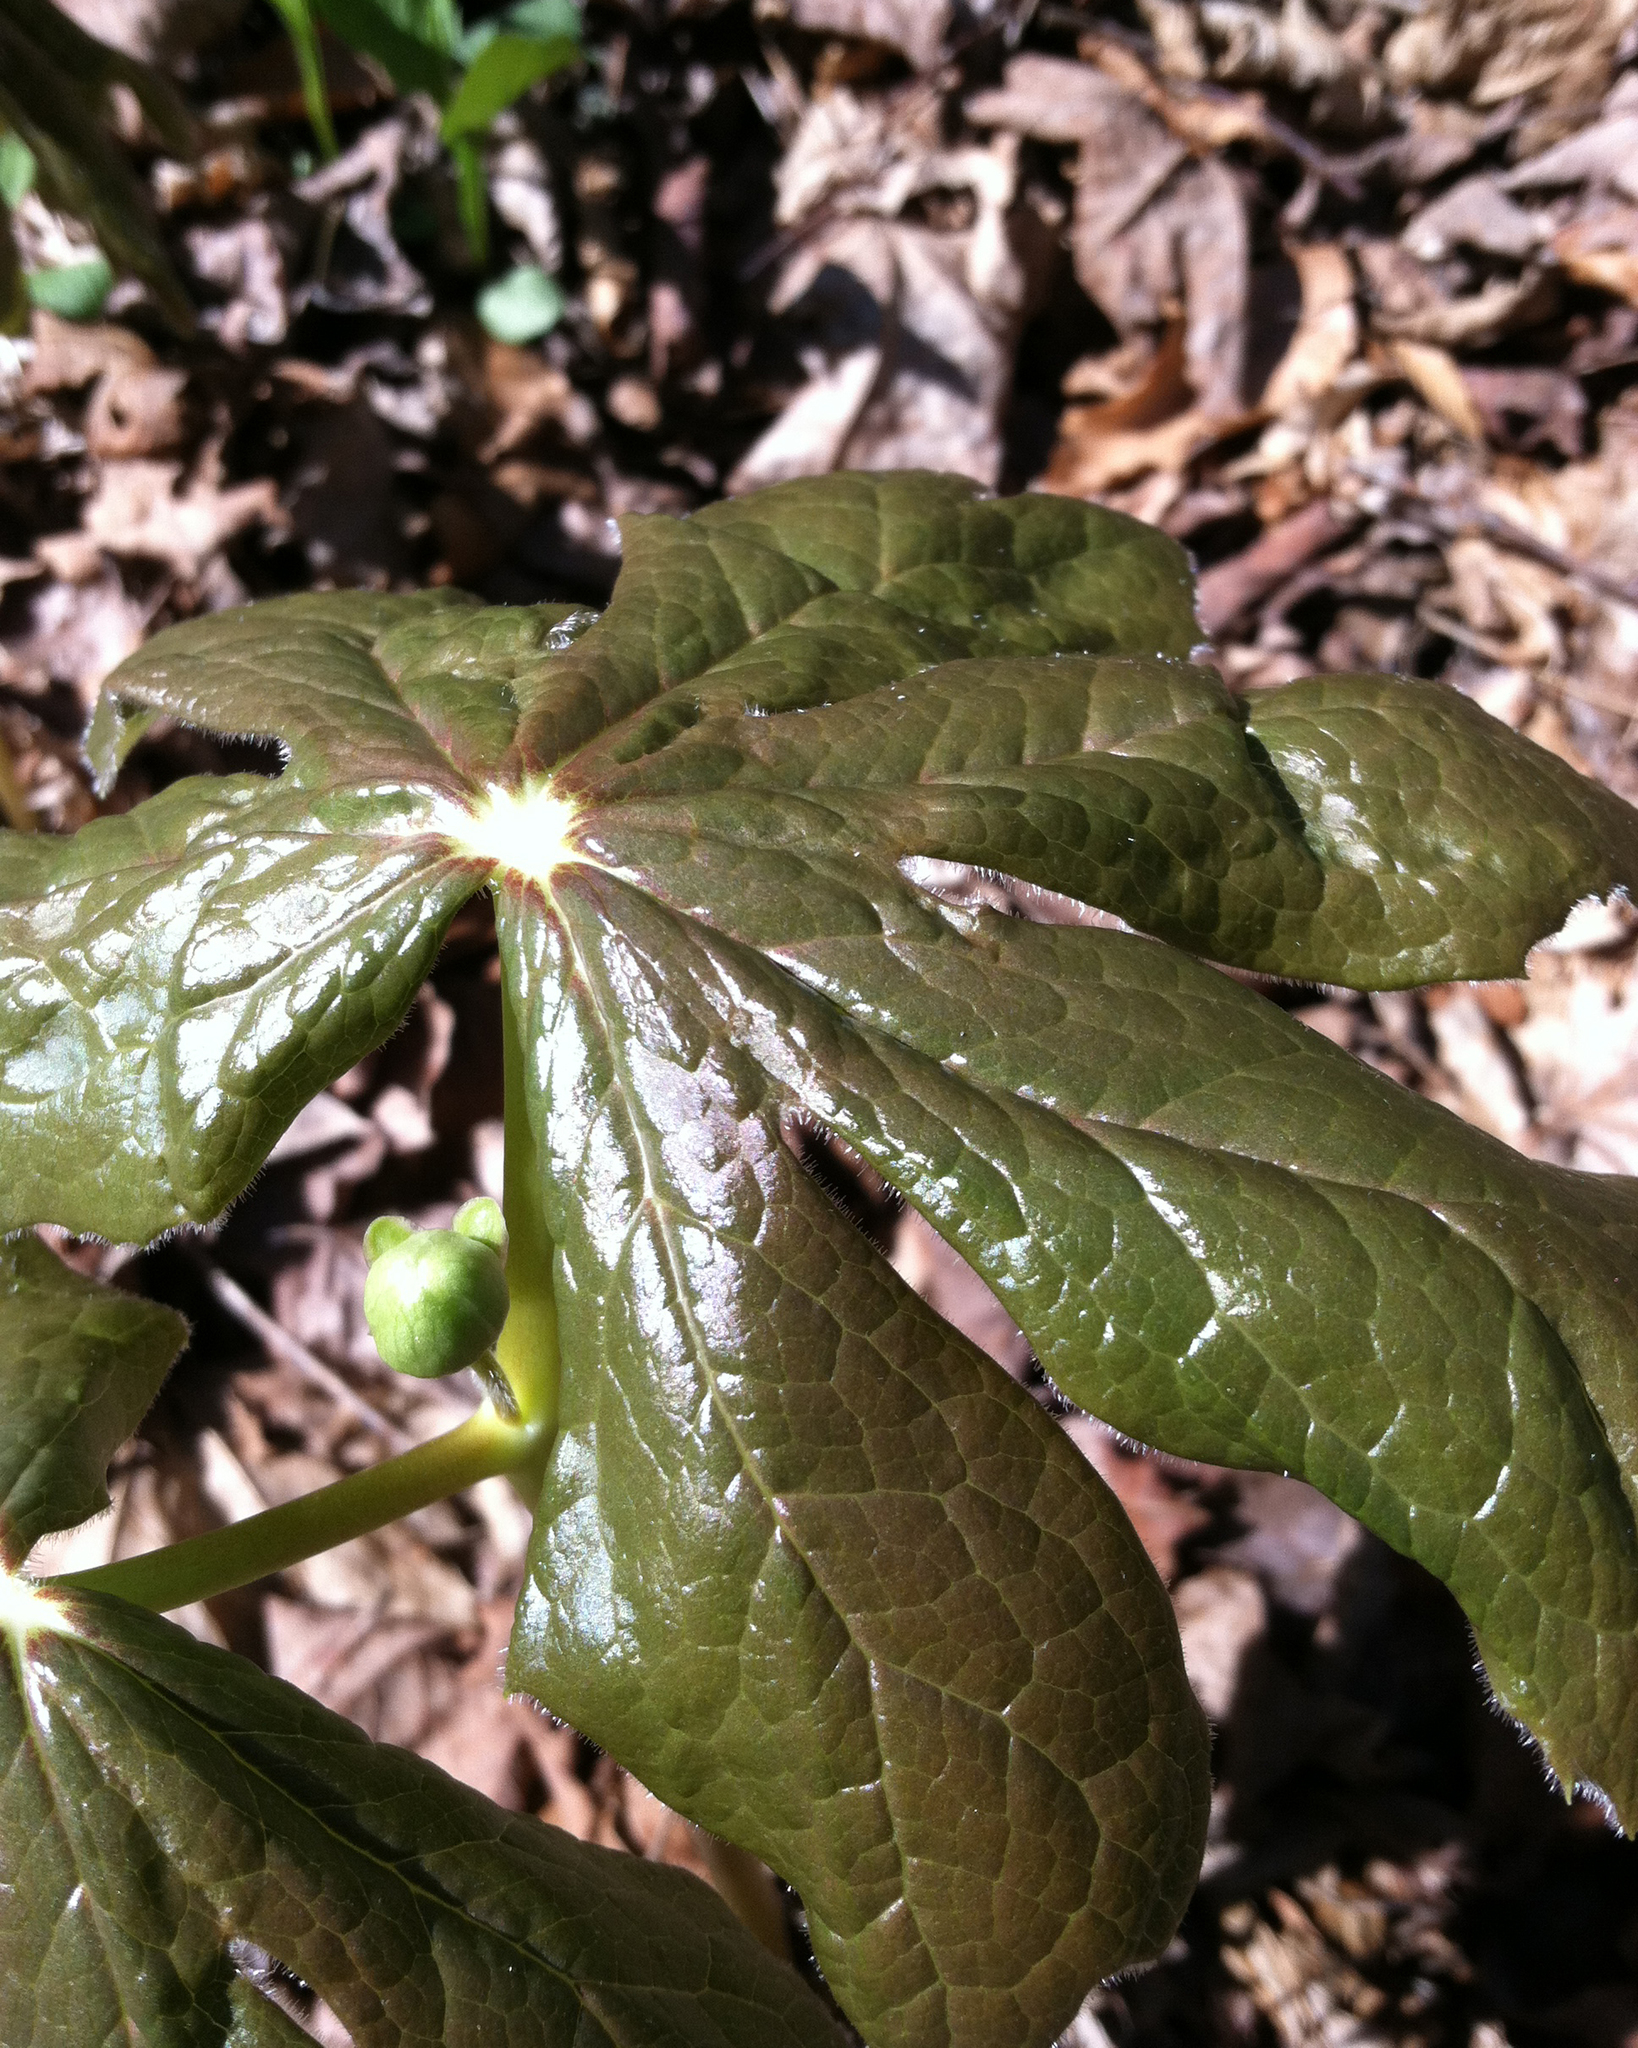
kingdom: Plantae
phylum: Tracheophyta
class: Magnoliopsida
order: Ranunculales
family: Berberidaceae
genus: Podophyllum
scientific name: Podophyllum peltatum
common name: Wild mandrake
